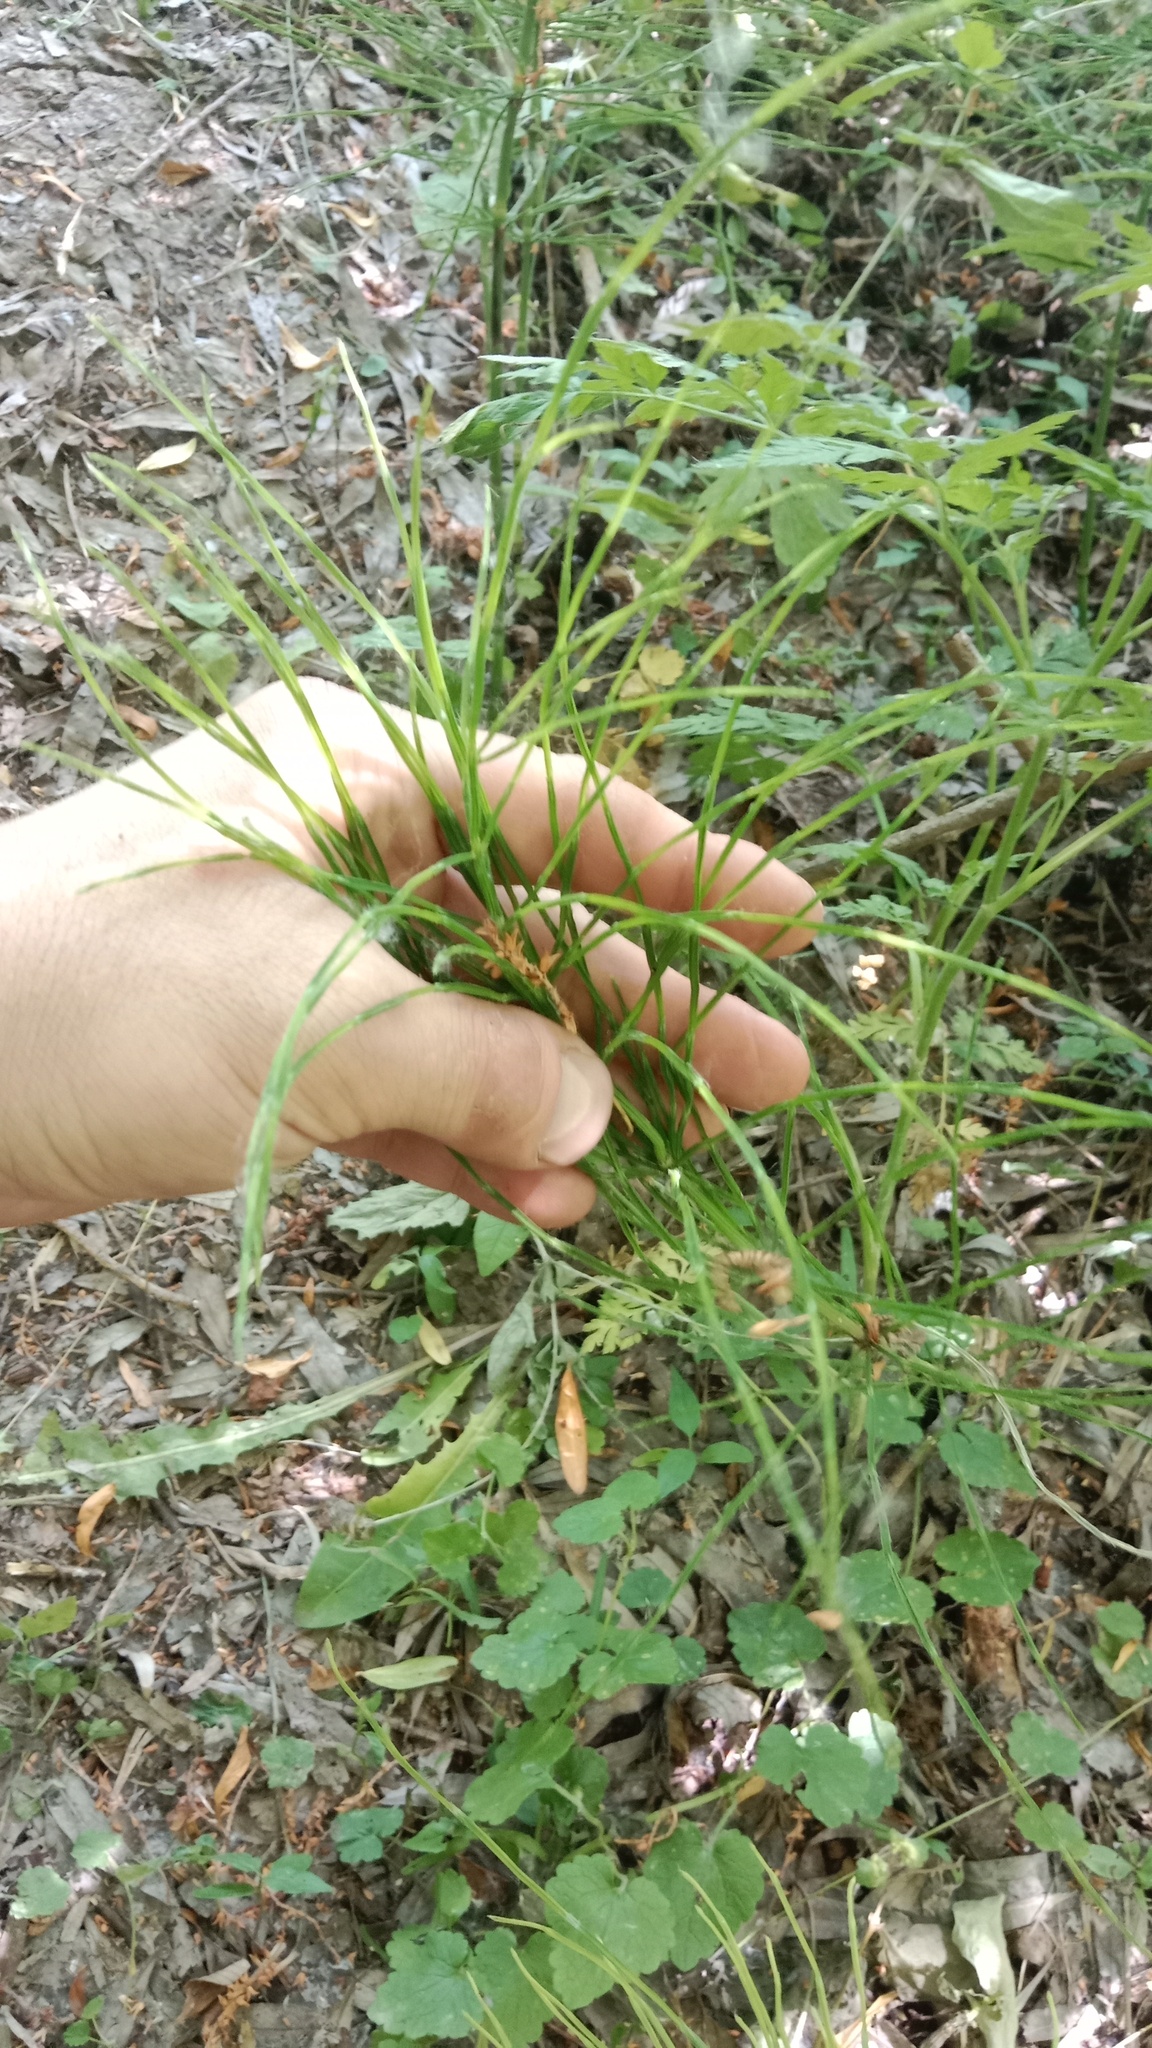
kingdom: Plantae
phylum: Tracheophyta
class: Polypodiopsida
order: Equisetales
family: Equisetaceae
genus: Equisetum
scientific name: Equisetum arvense
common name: Field horsetail
